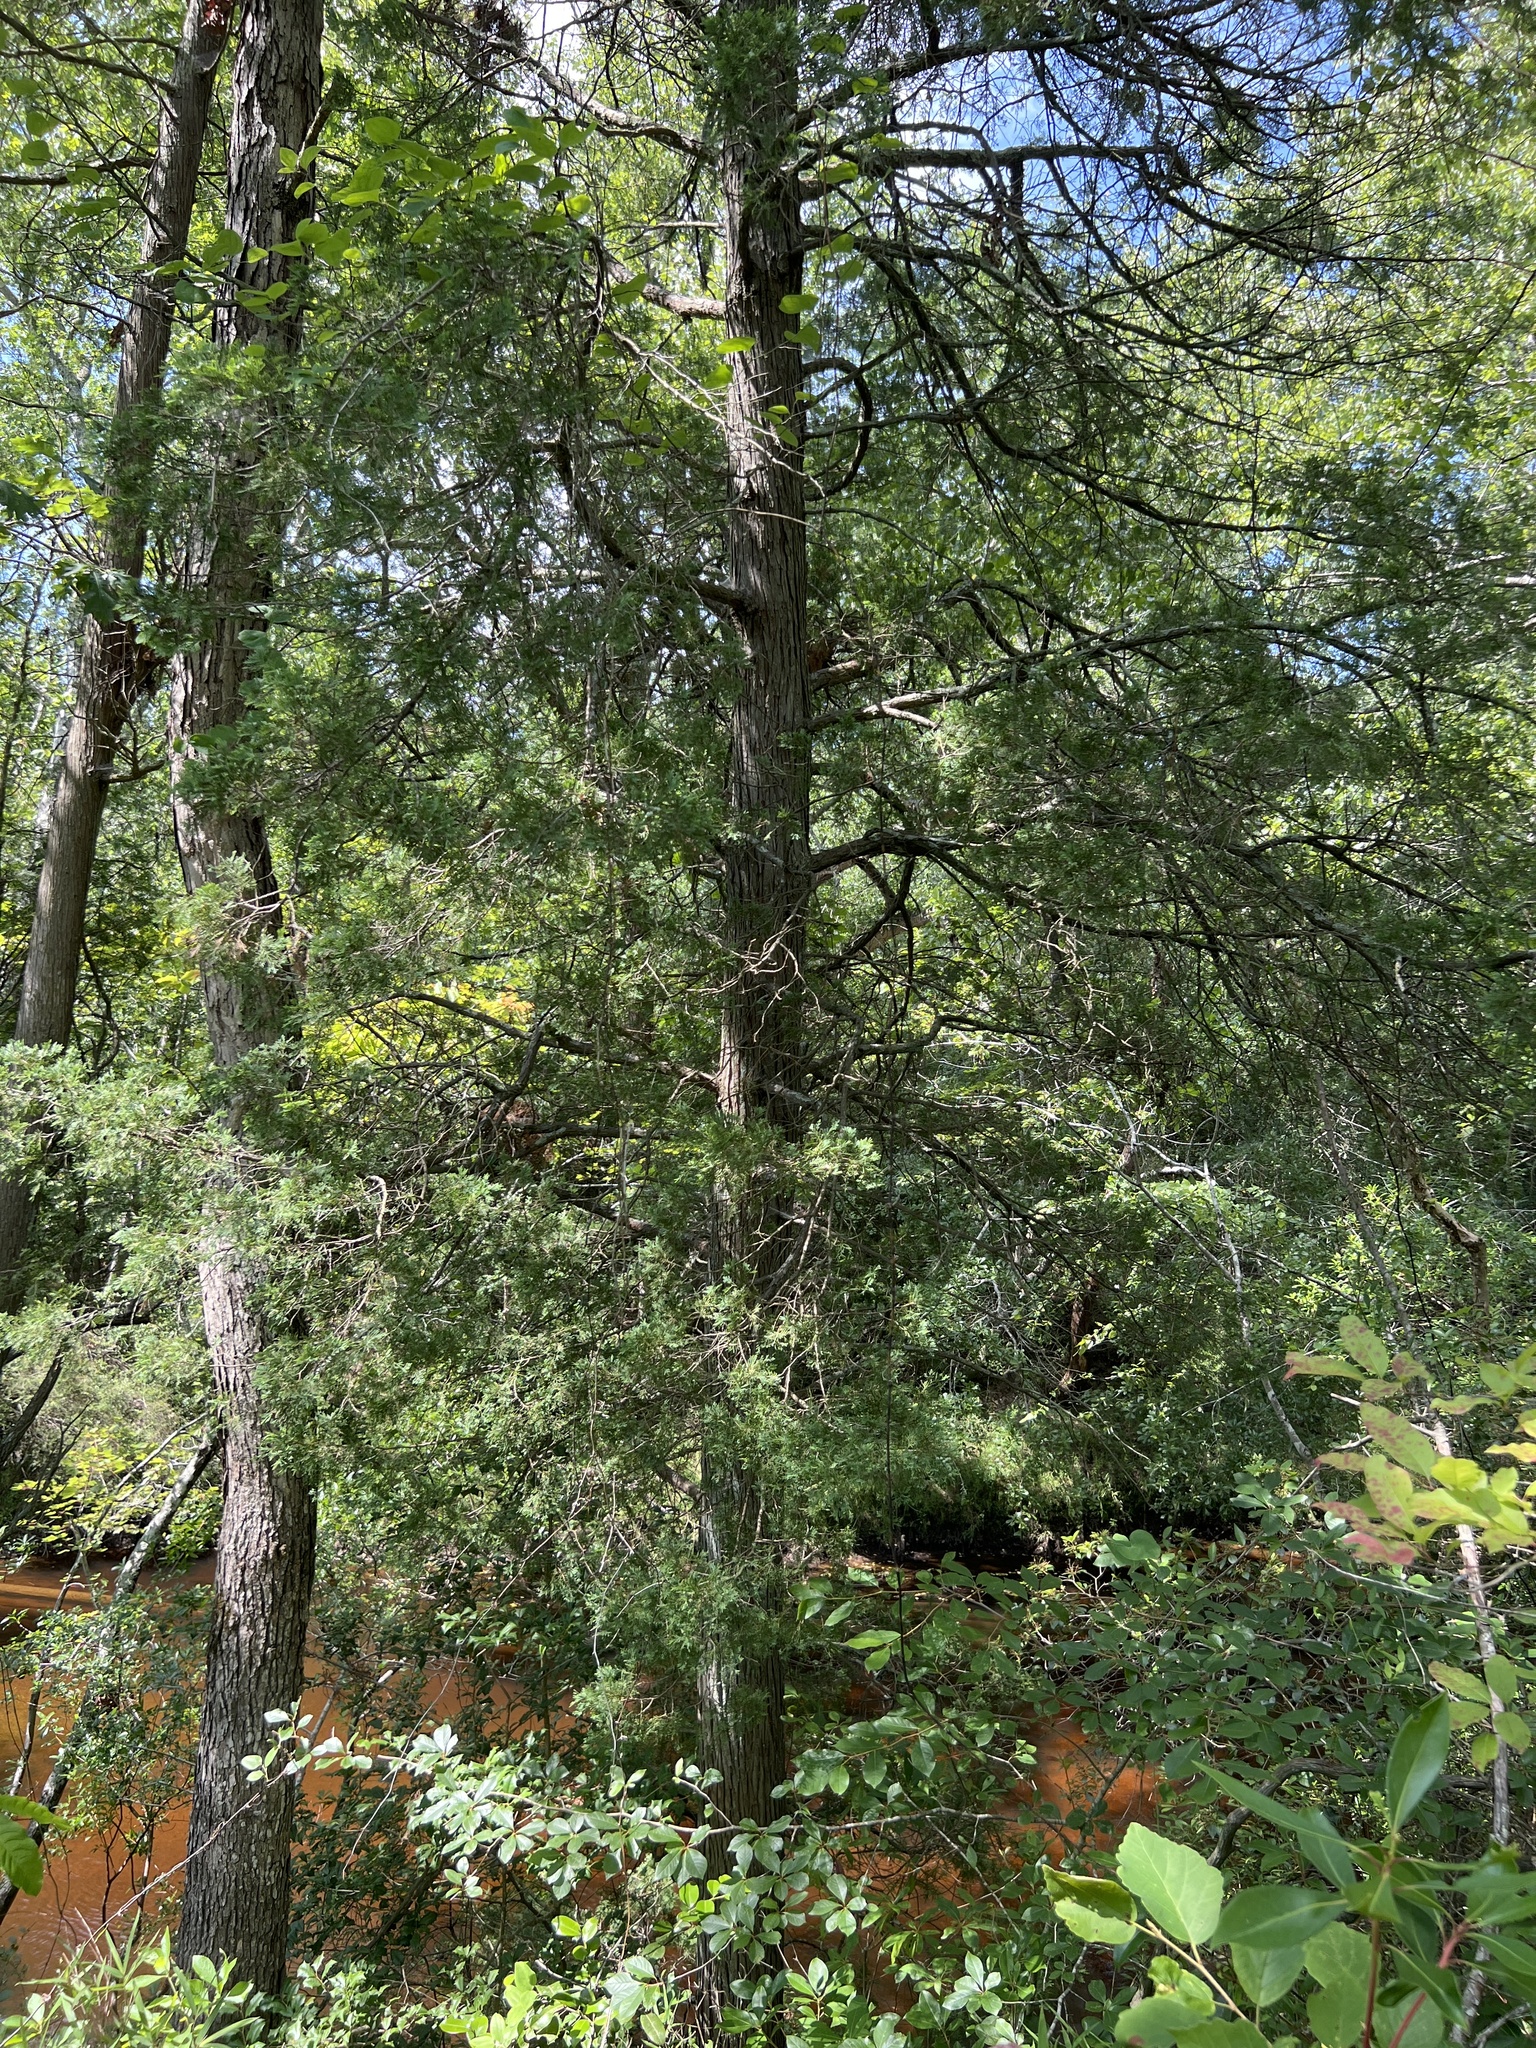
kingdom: Plantae
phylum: Tracheophyta
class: Pinopsida
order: Pinales
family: Cupressaceae
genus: Chamaecyparis
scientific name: Chamaecyparis thyoides
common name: Atlantic white cedar
